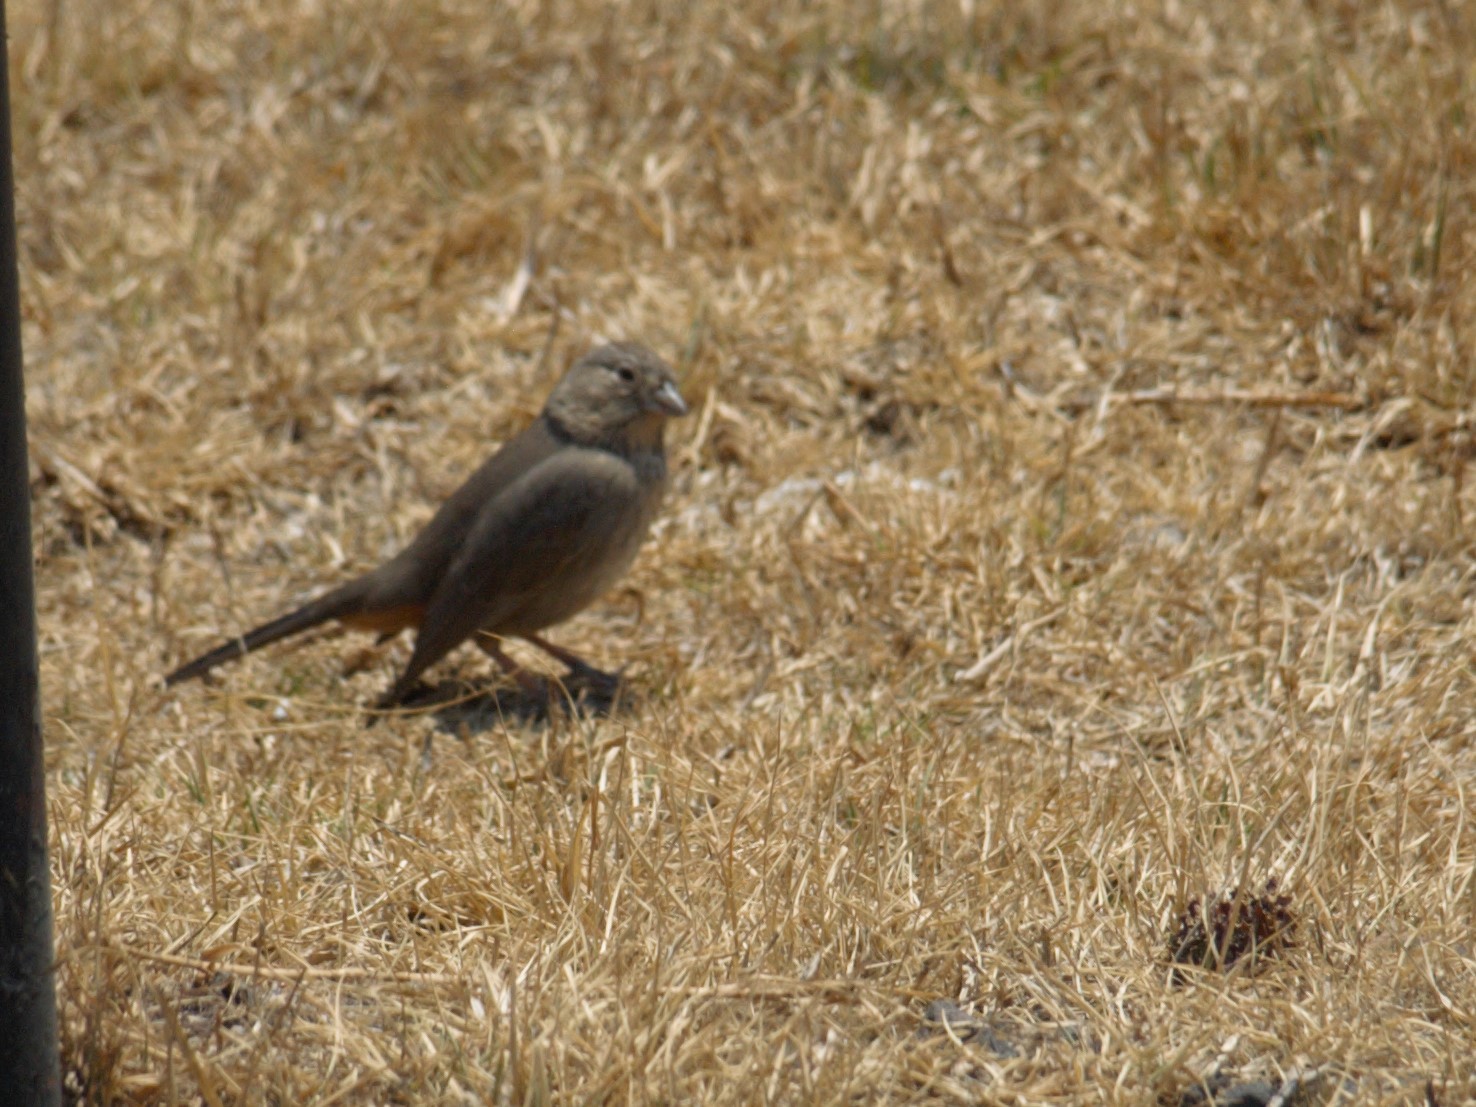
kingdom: Animalia
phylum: Chordata
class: Aves
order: Passeriformes
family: Passerellidae
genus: Melozone
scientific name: Melozone fusca
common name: Canyon towhee
